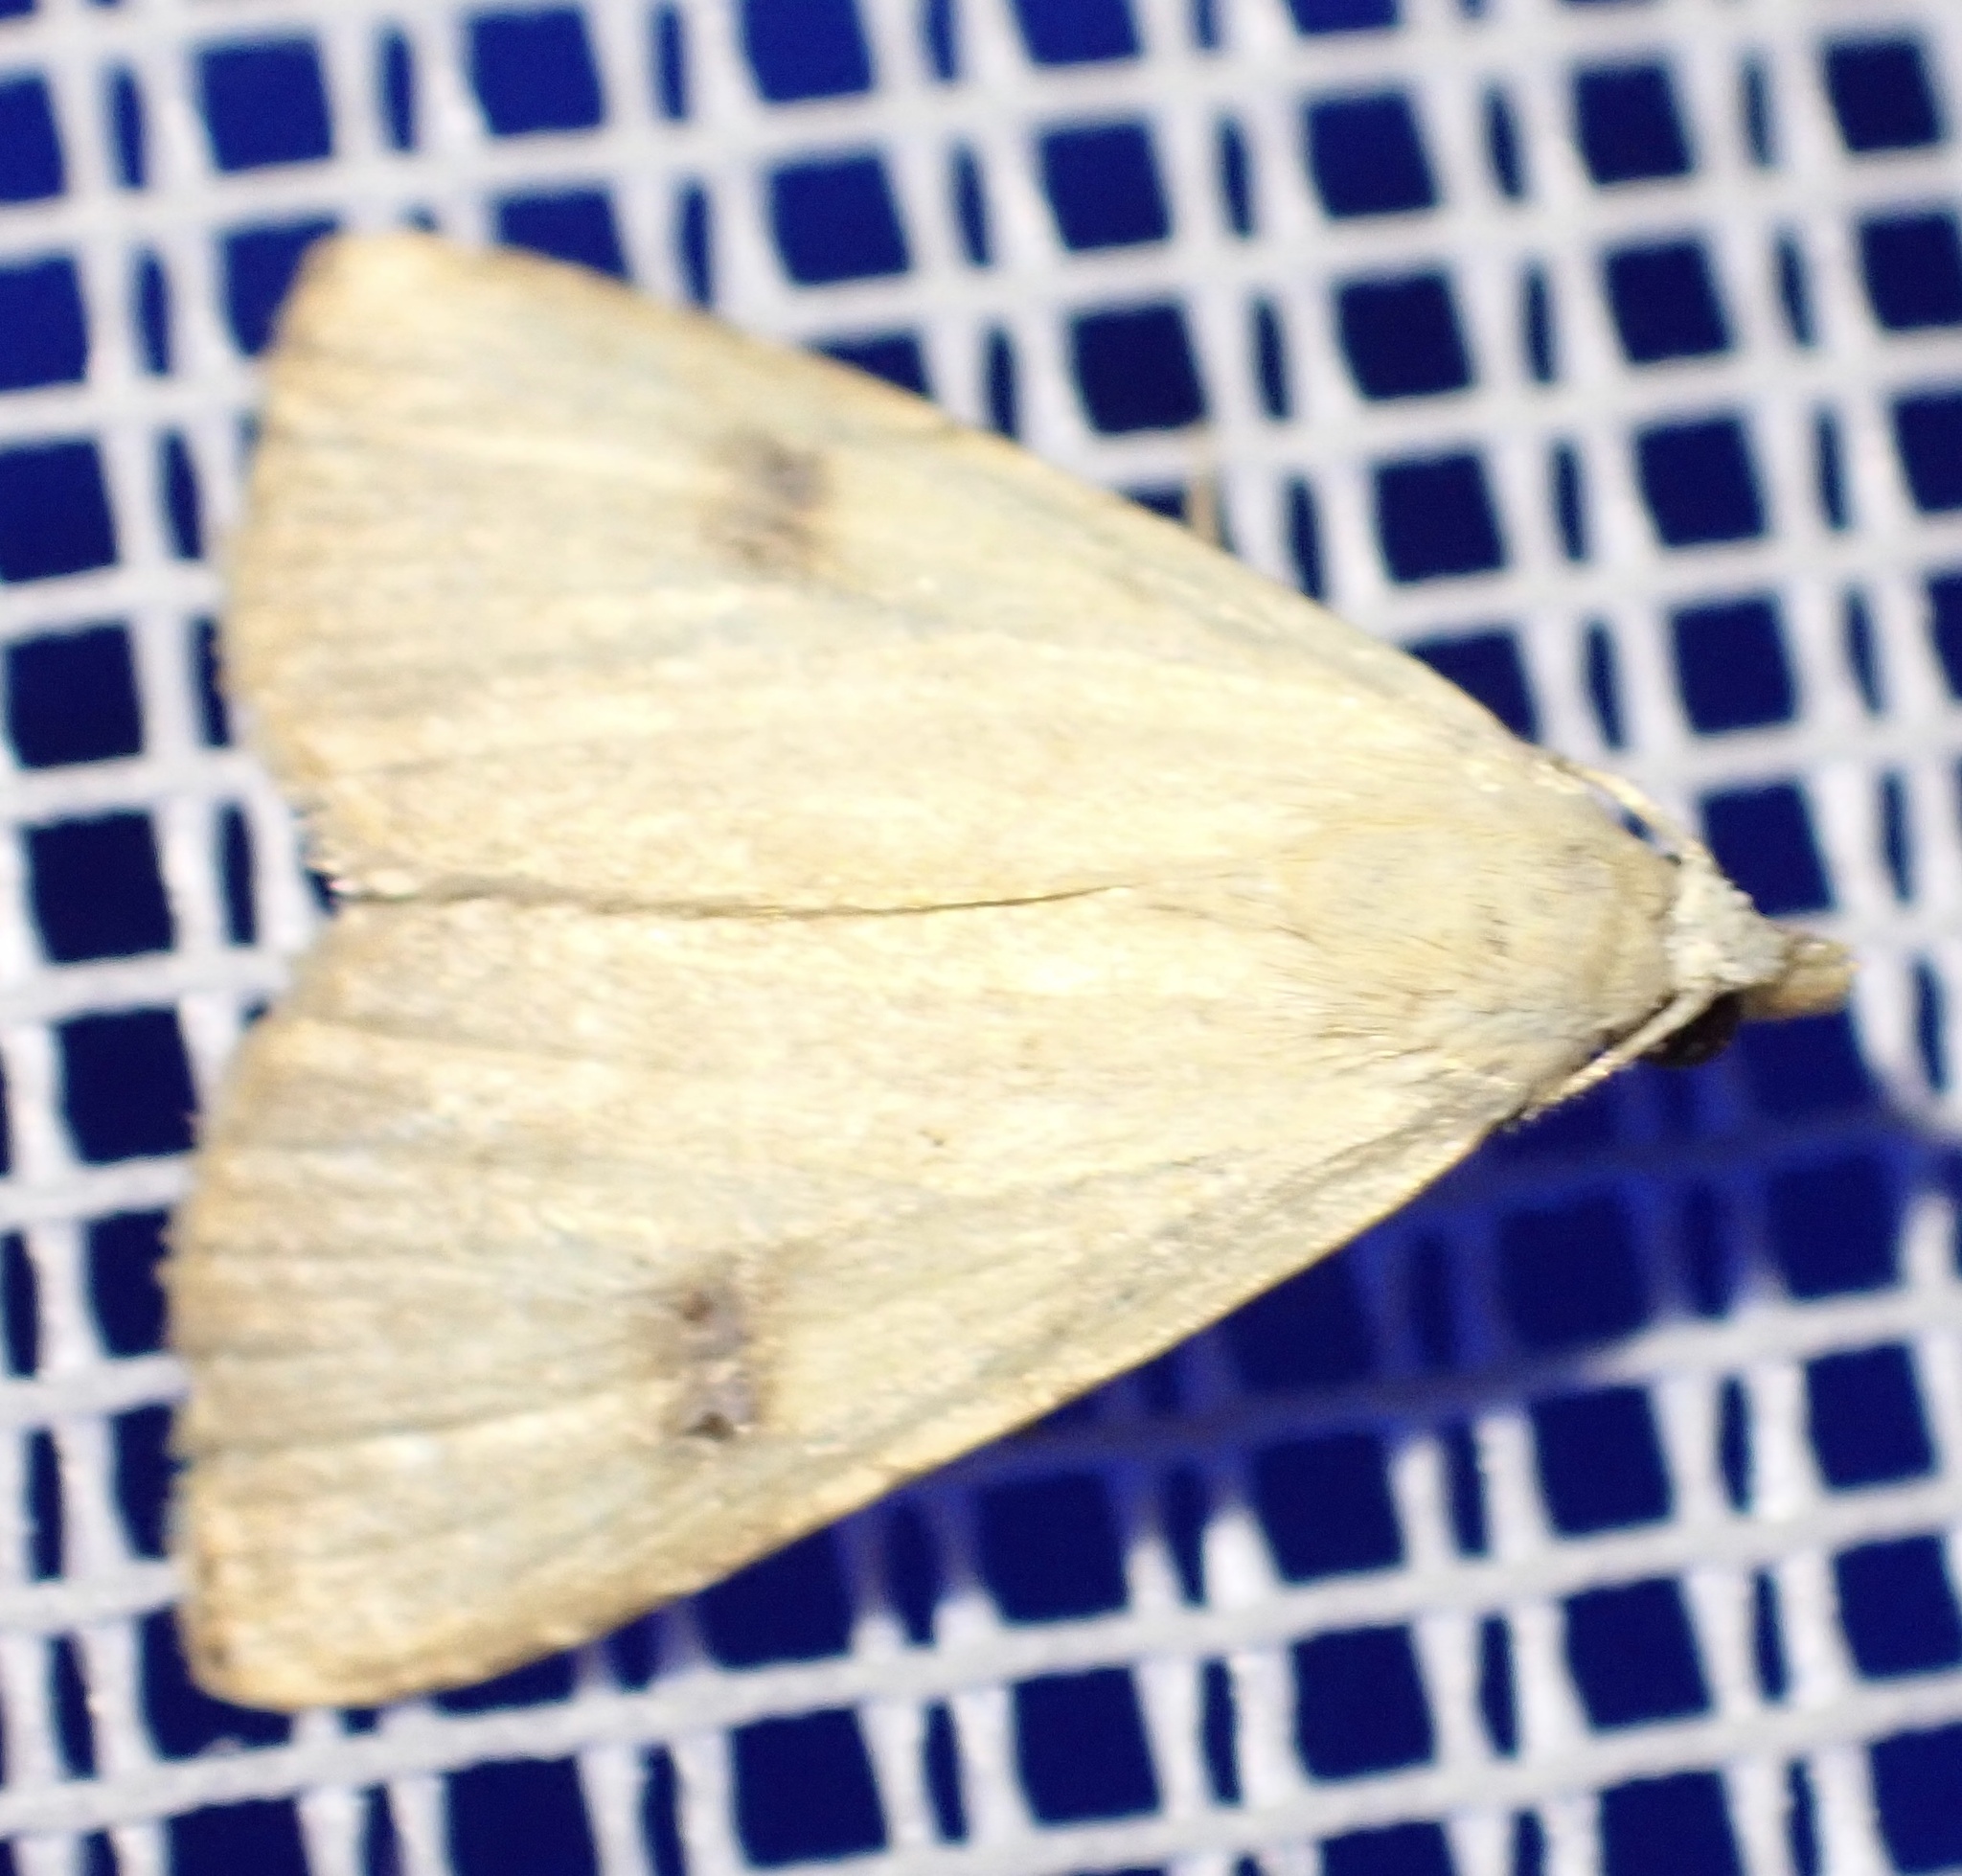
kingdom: Animalia
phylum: Arthropoda
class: Insecta
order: Lepidoptera
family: Erebidae
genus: Rivula
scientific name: Rivula sericealis
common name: Straw dot
